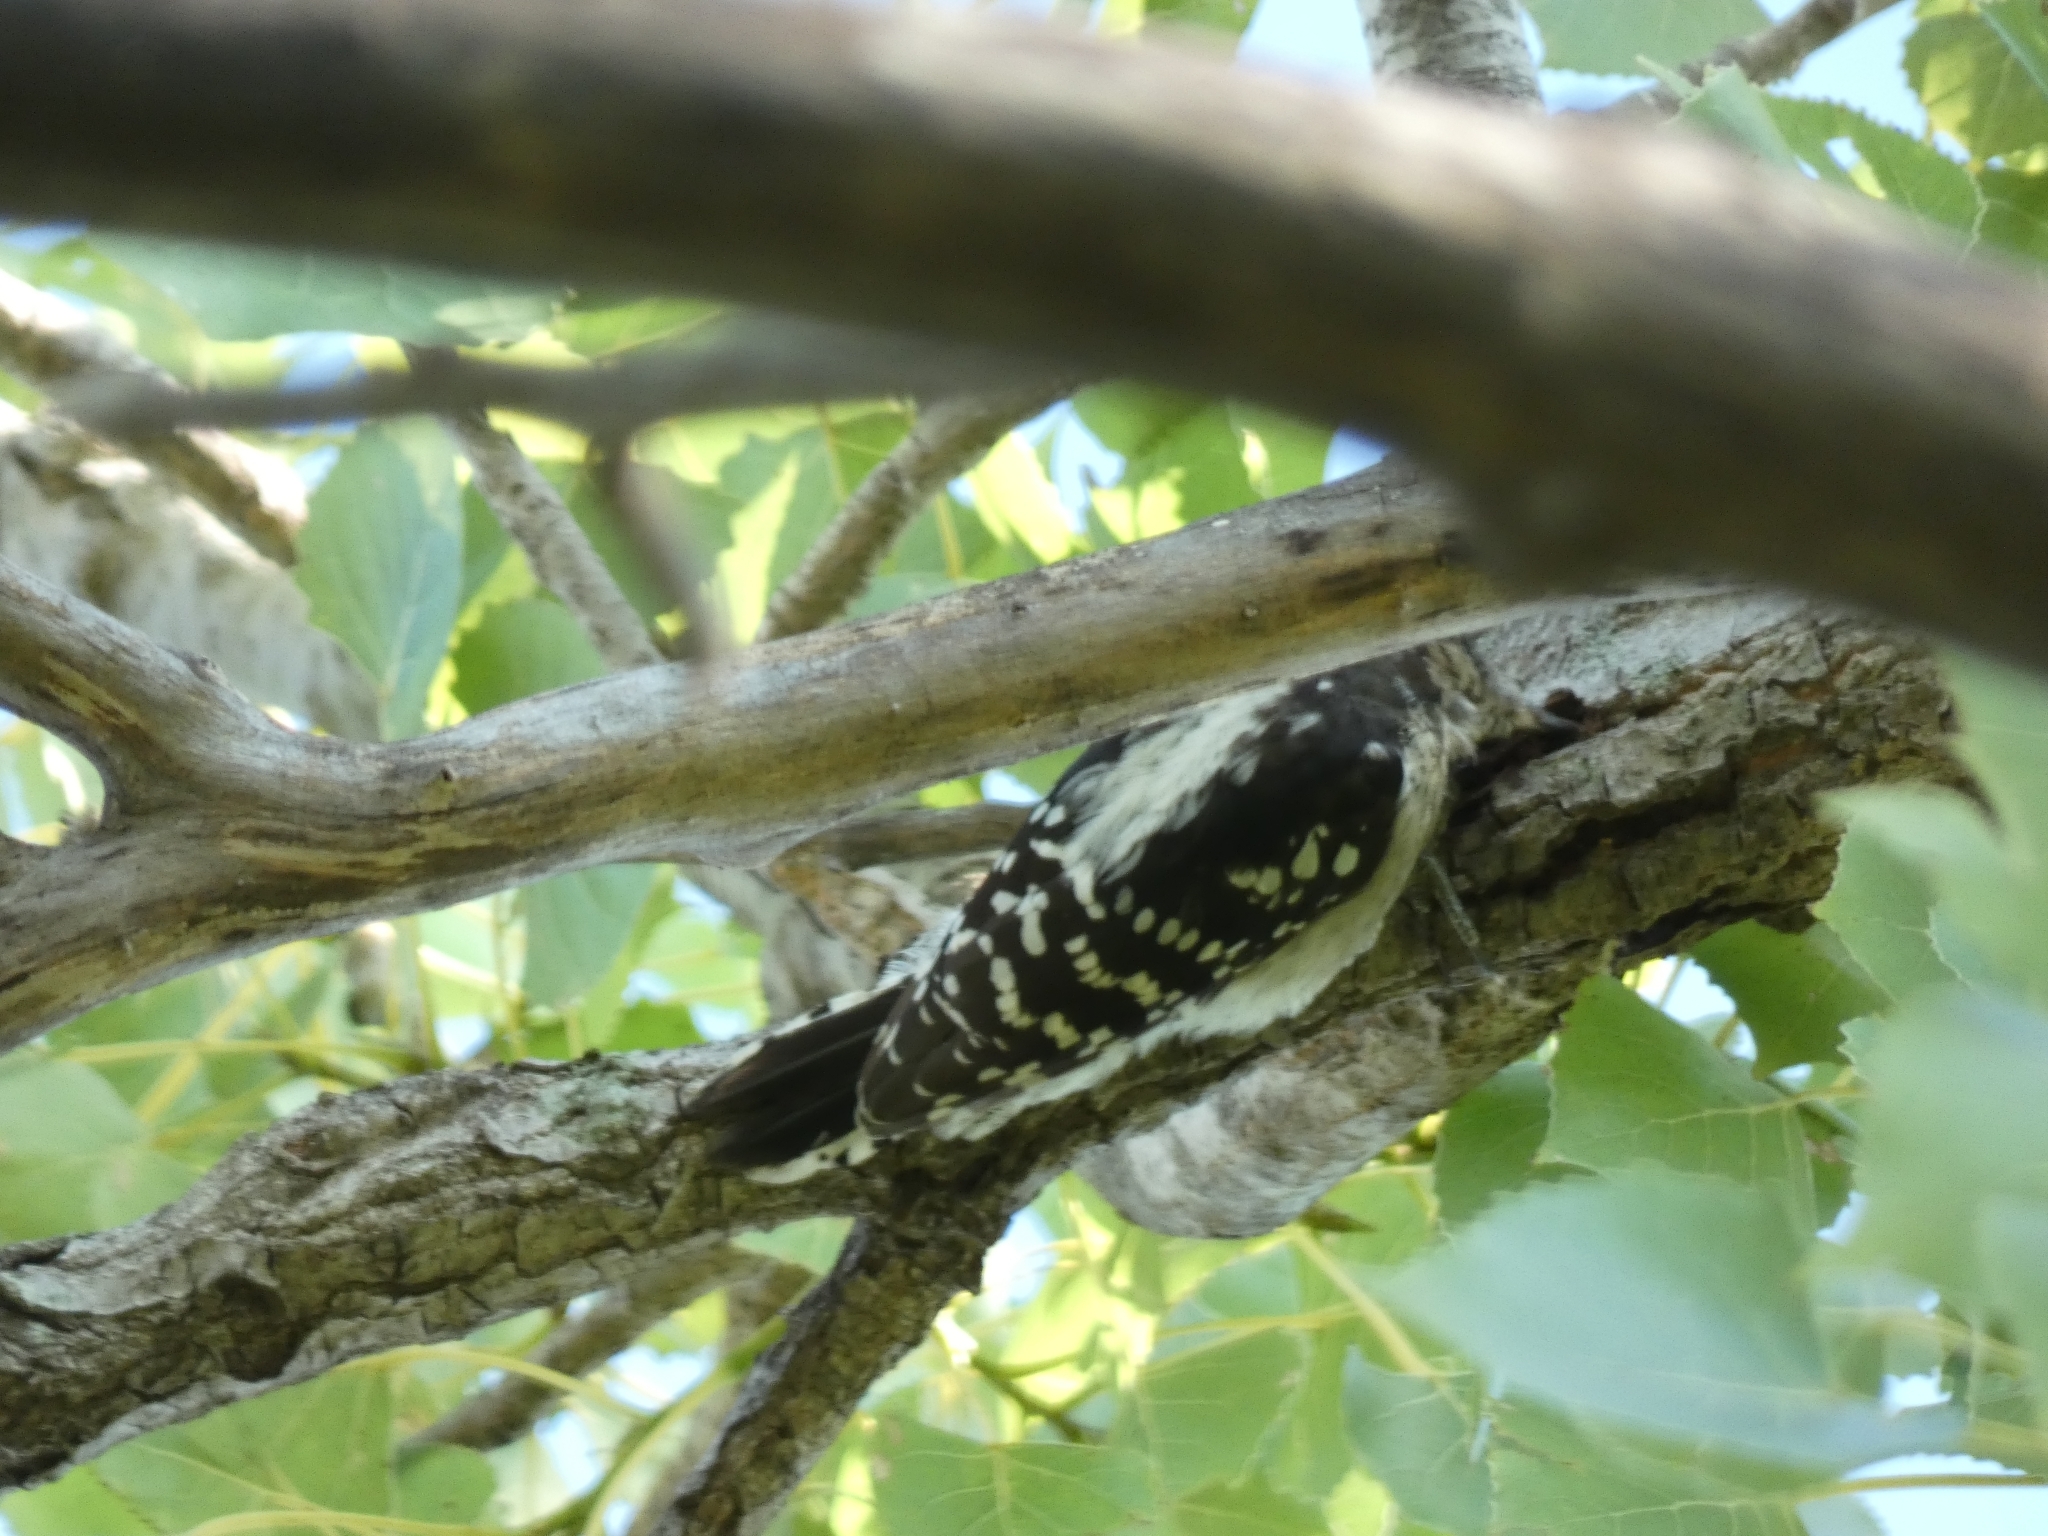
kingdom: Animalia
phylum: Chordata
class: Aves
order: Piciformes
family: Picidae
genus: Dryobates
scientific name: Dryobates pubescens
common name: Downy woodpecker
